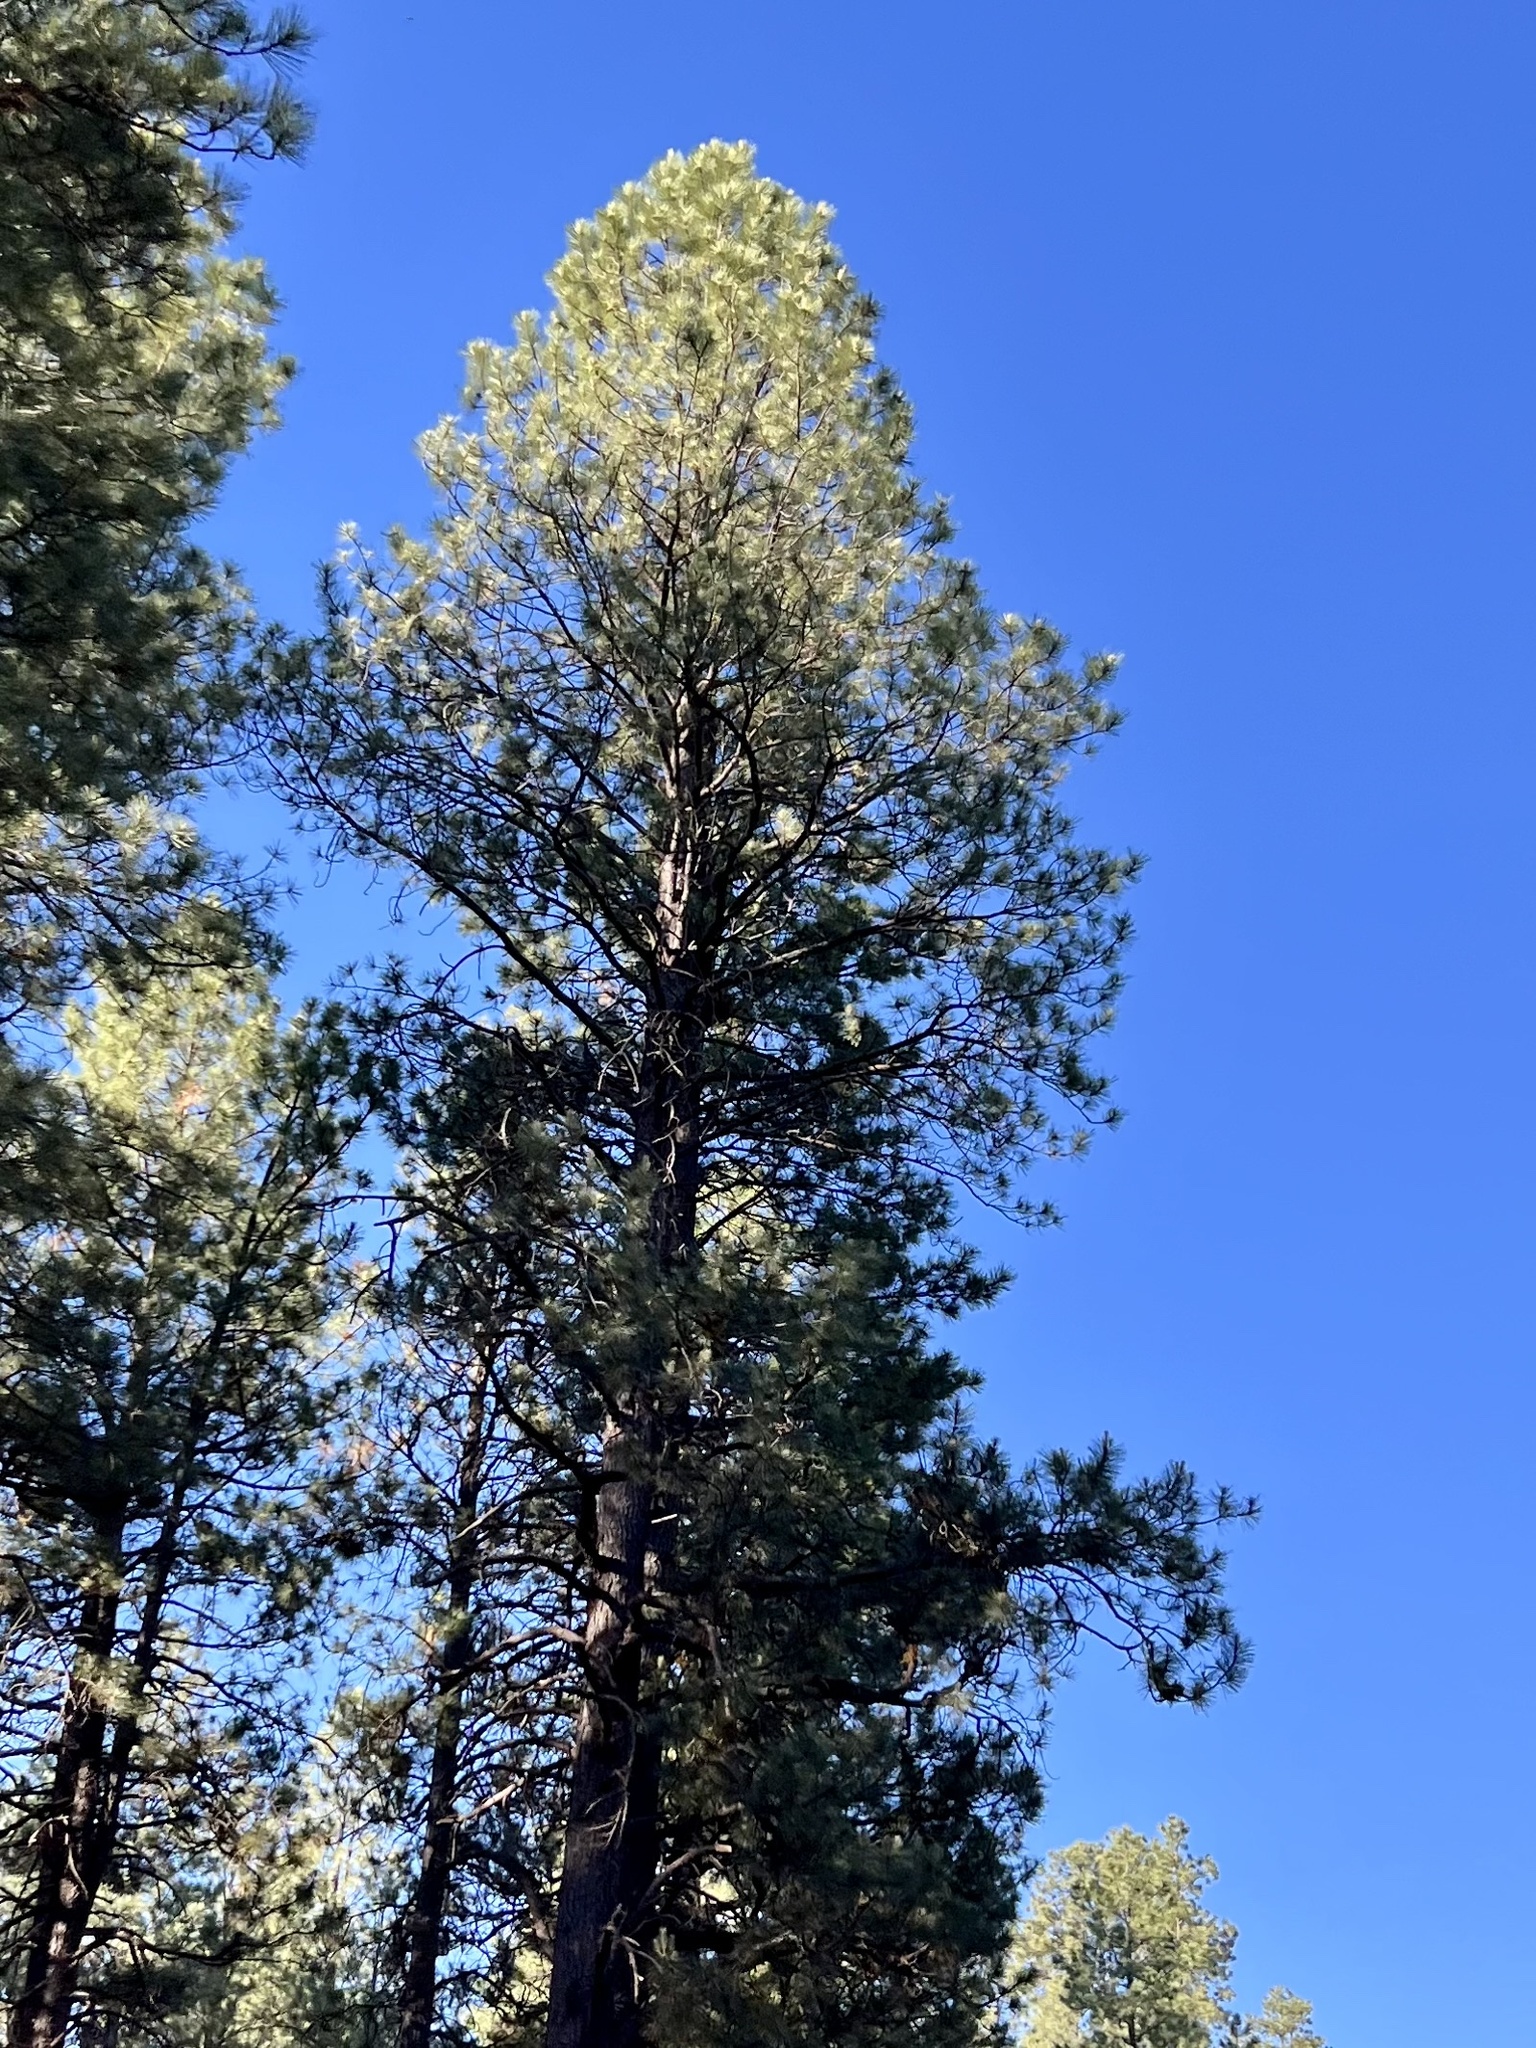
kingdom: Plantae
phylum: Tracheophyta
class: Pinopsida
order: Pinales
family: Pinaceae
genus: Pinus
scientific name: Pinus ponderosa
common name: Western yellow-pine
